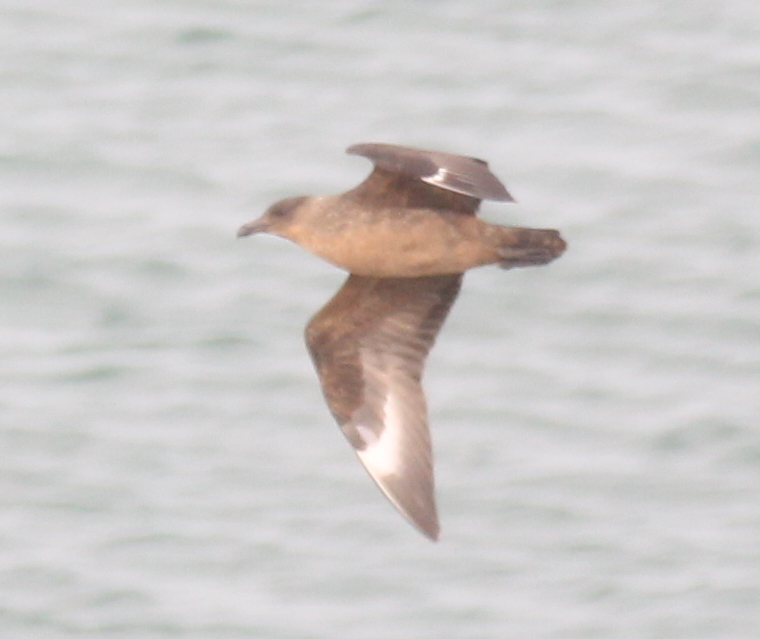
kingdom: Animalia
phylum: Chordata
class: Aves
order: Charadriiformes
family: Stercorariidae
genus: Stercorarius
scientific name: Stercorarius chilensis
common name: Chilean skua
